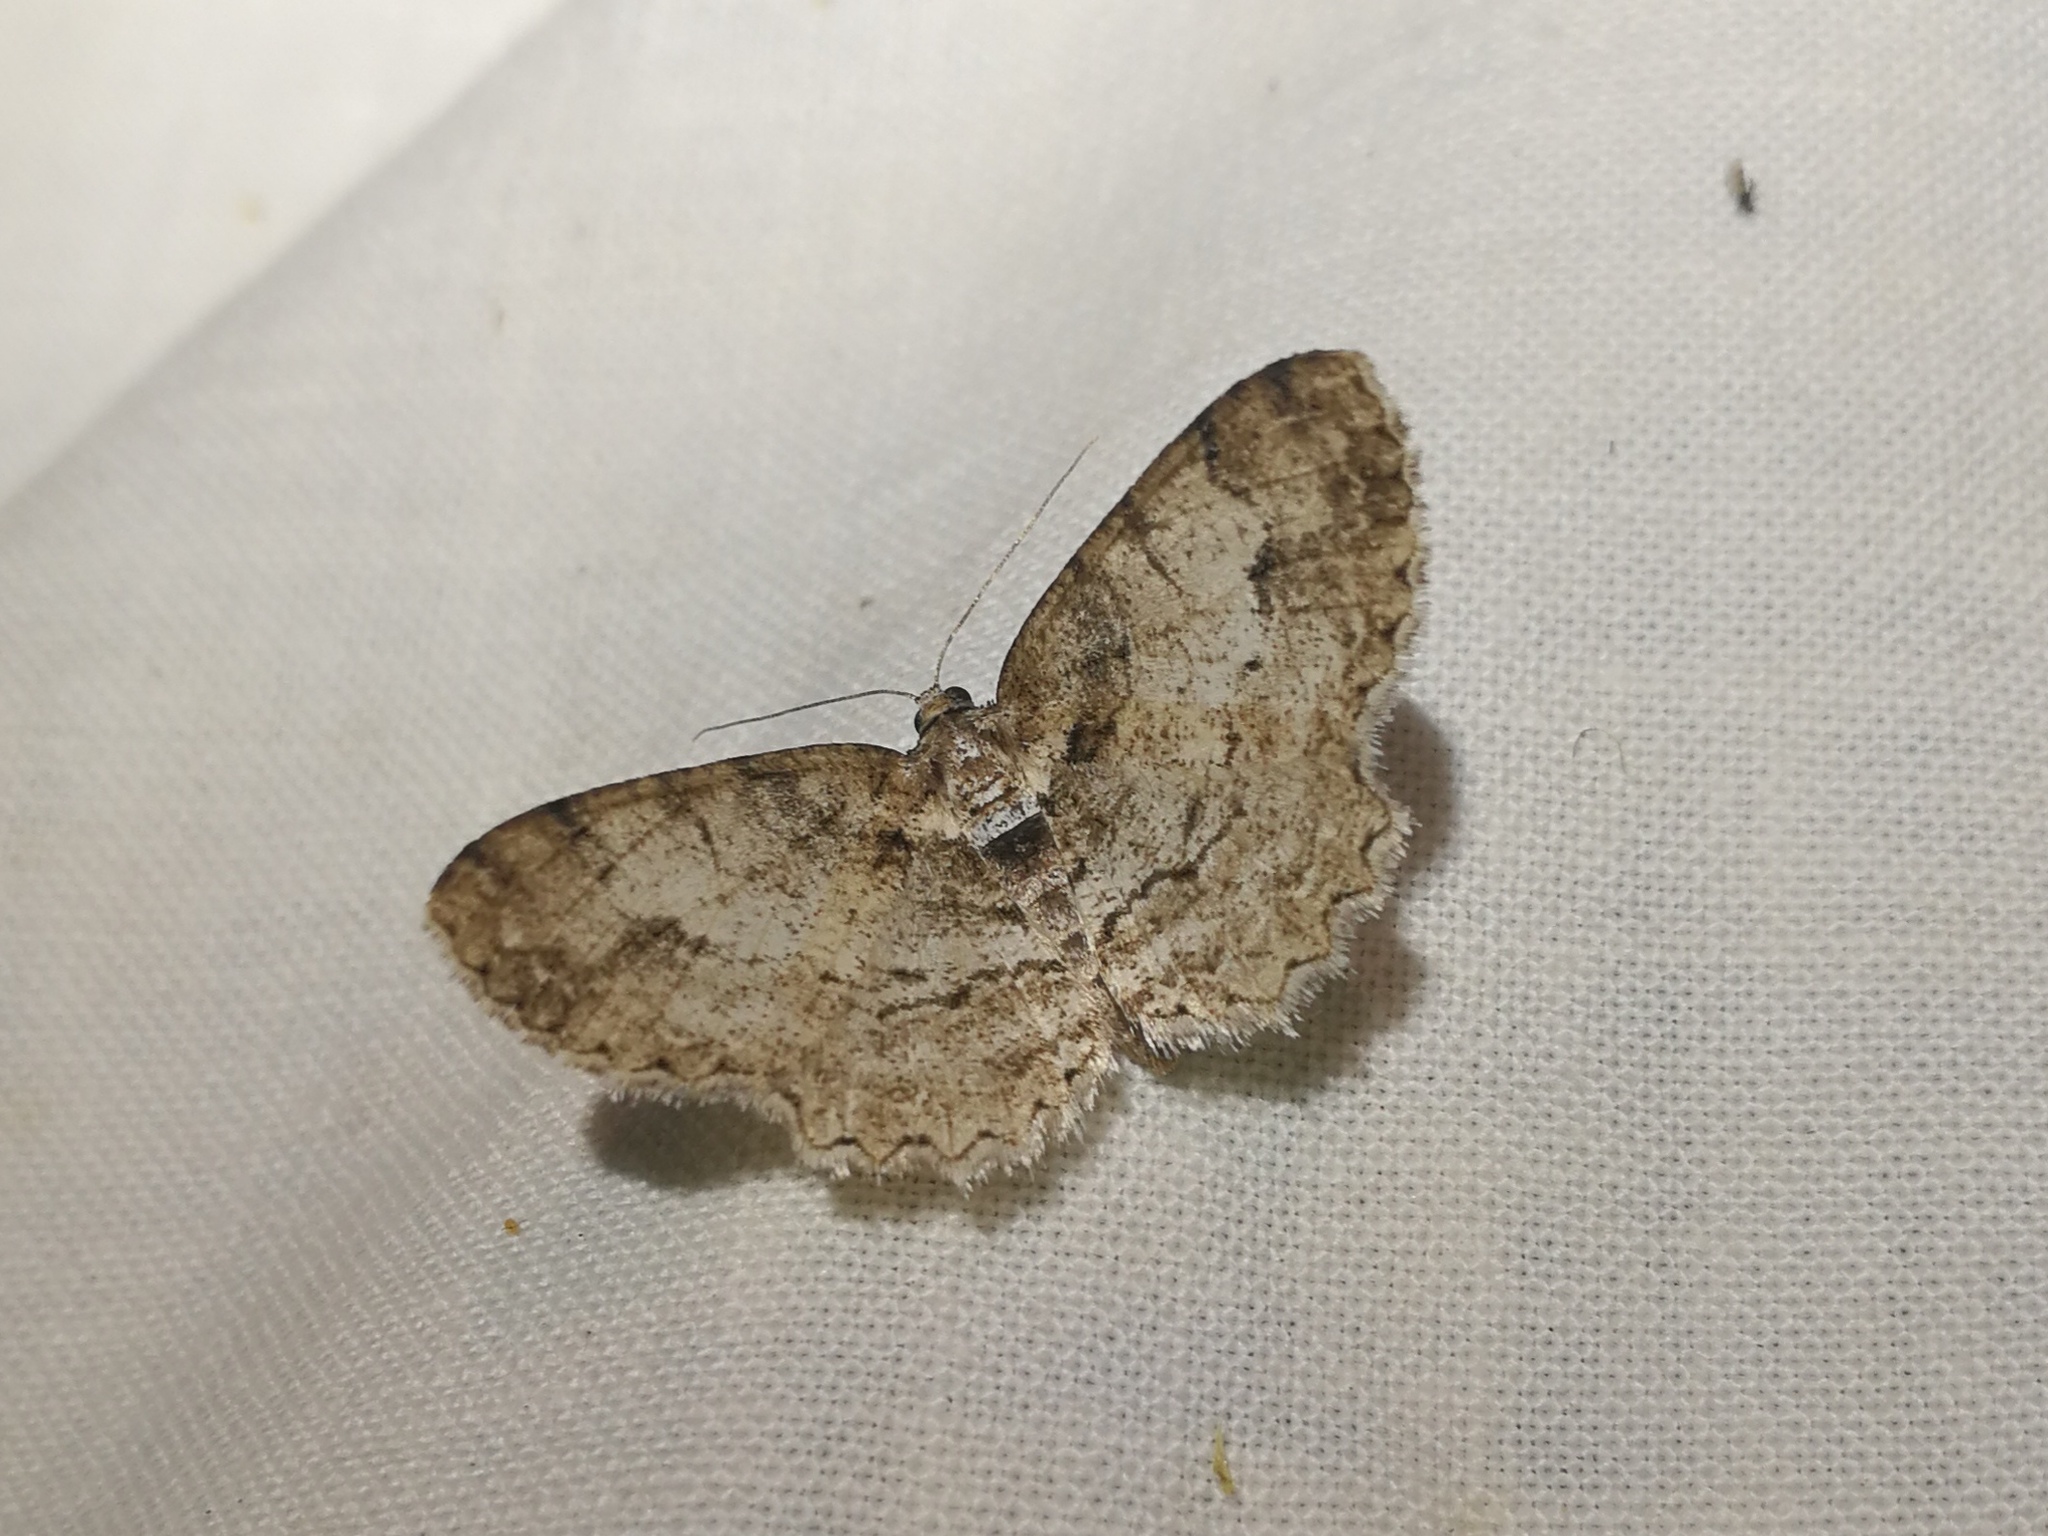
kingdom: Animalia
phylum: Arthropoda
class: Insecta
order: Lepidoptera
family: Geometridae
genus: Paradarisa
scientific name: Paradarisa consonaria
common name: Square spot
